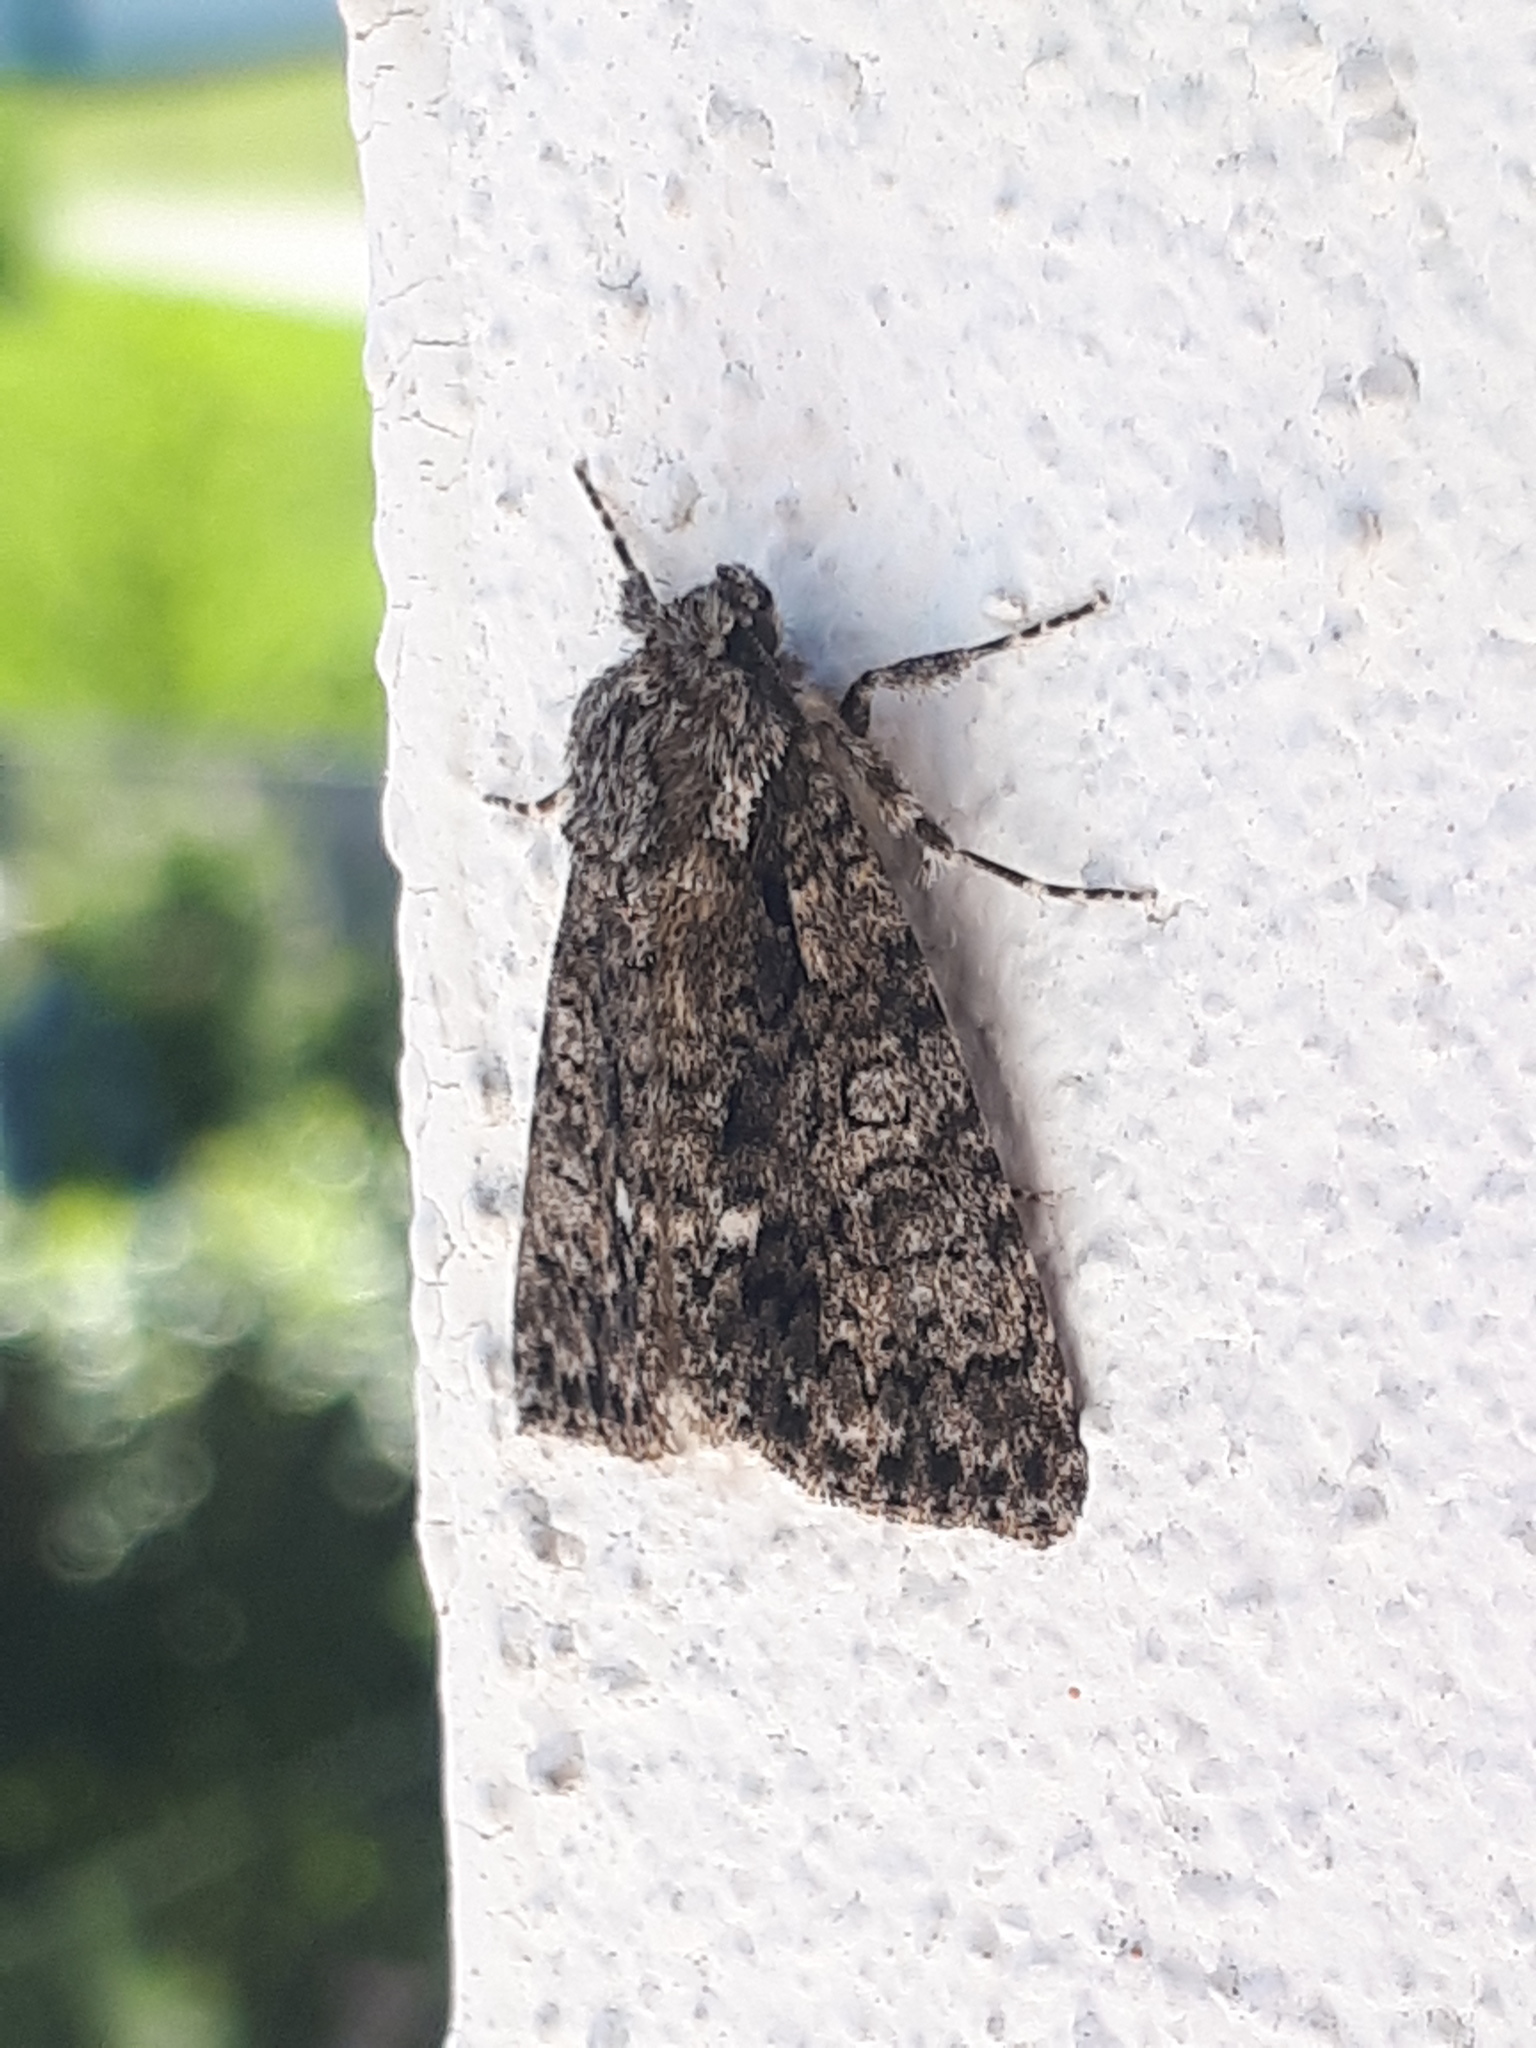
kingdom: Animalia
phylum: Arthropoda
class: Insecta
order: Lepidoptera
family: Noctuidae
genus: Acronicta
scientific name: Acronicta rumicis
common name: Knot grass
